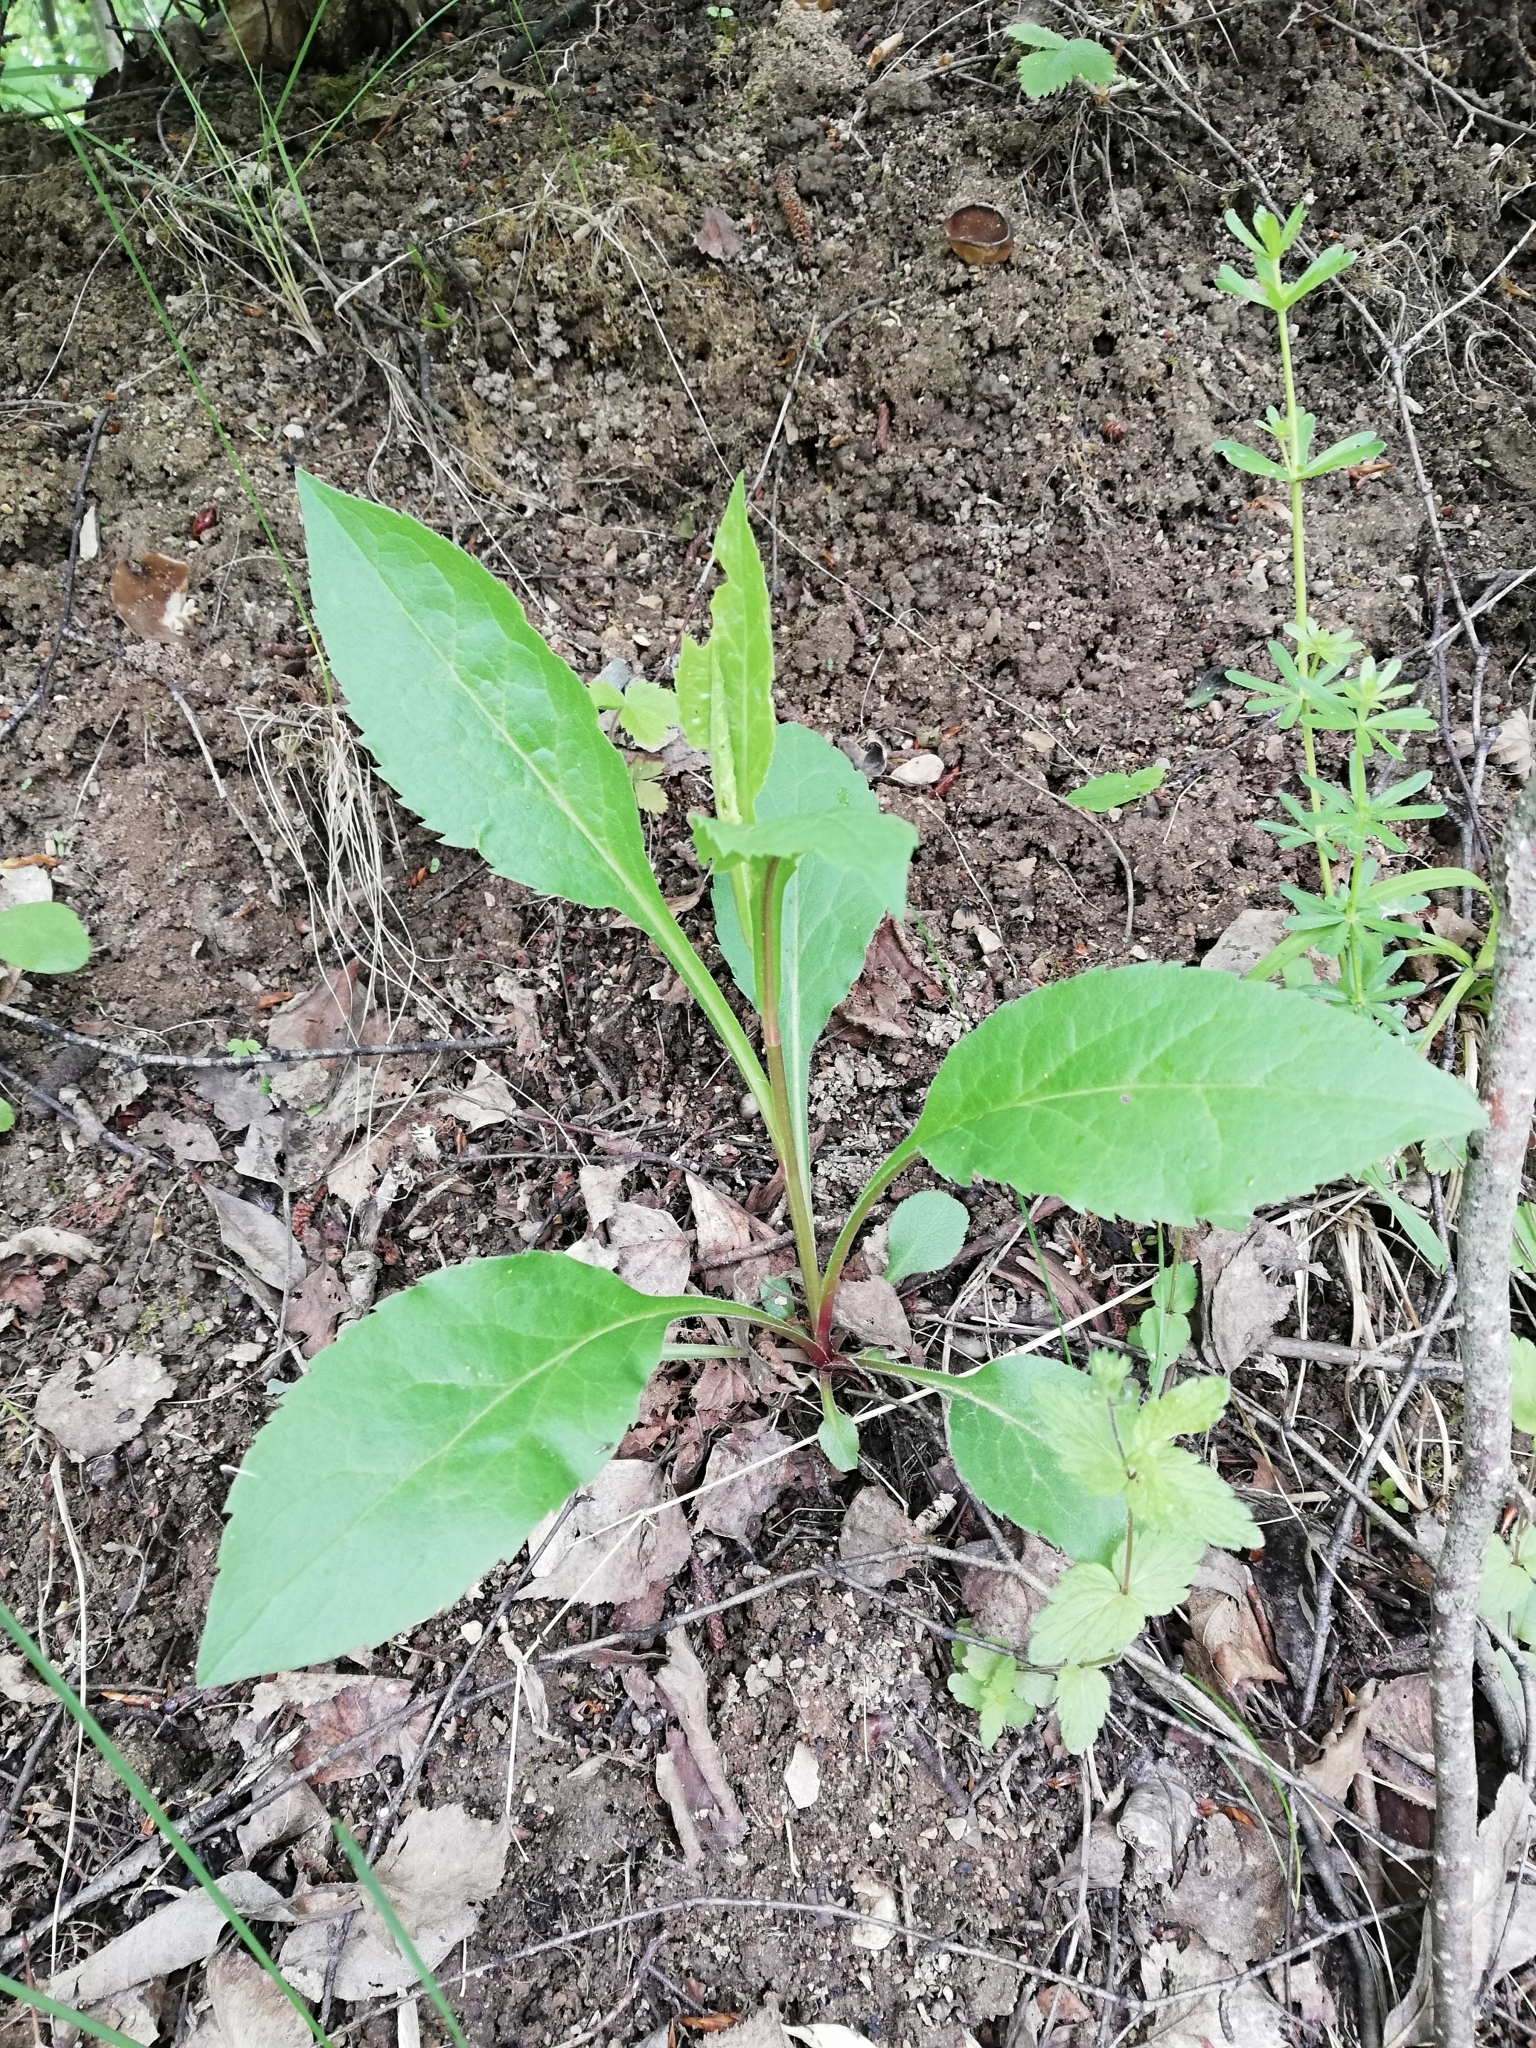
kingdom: Plantae
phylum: Tracheophyta
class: Magnoliopsida
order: Asterales
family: Asteraceae
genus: Solidago
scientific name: Solidago virgaurea
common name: Goldenrod
